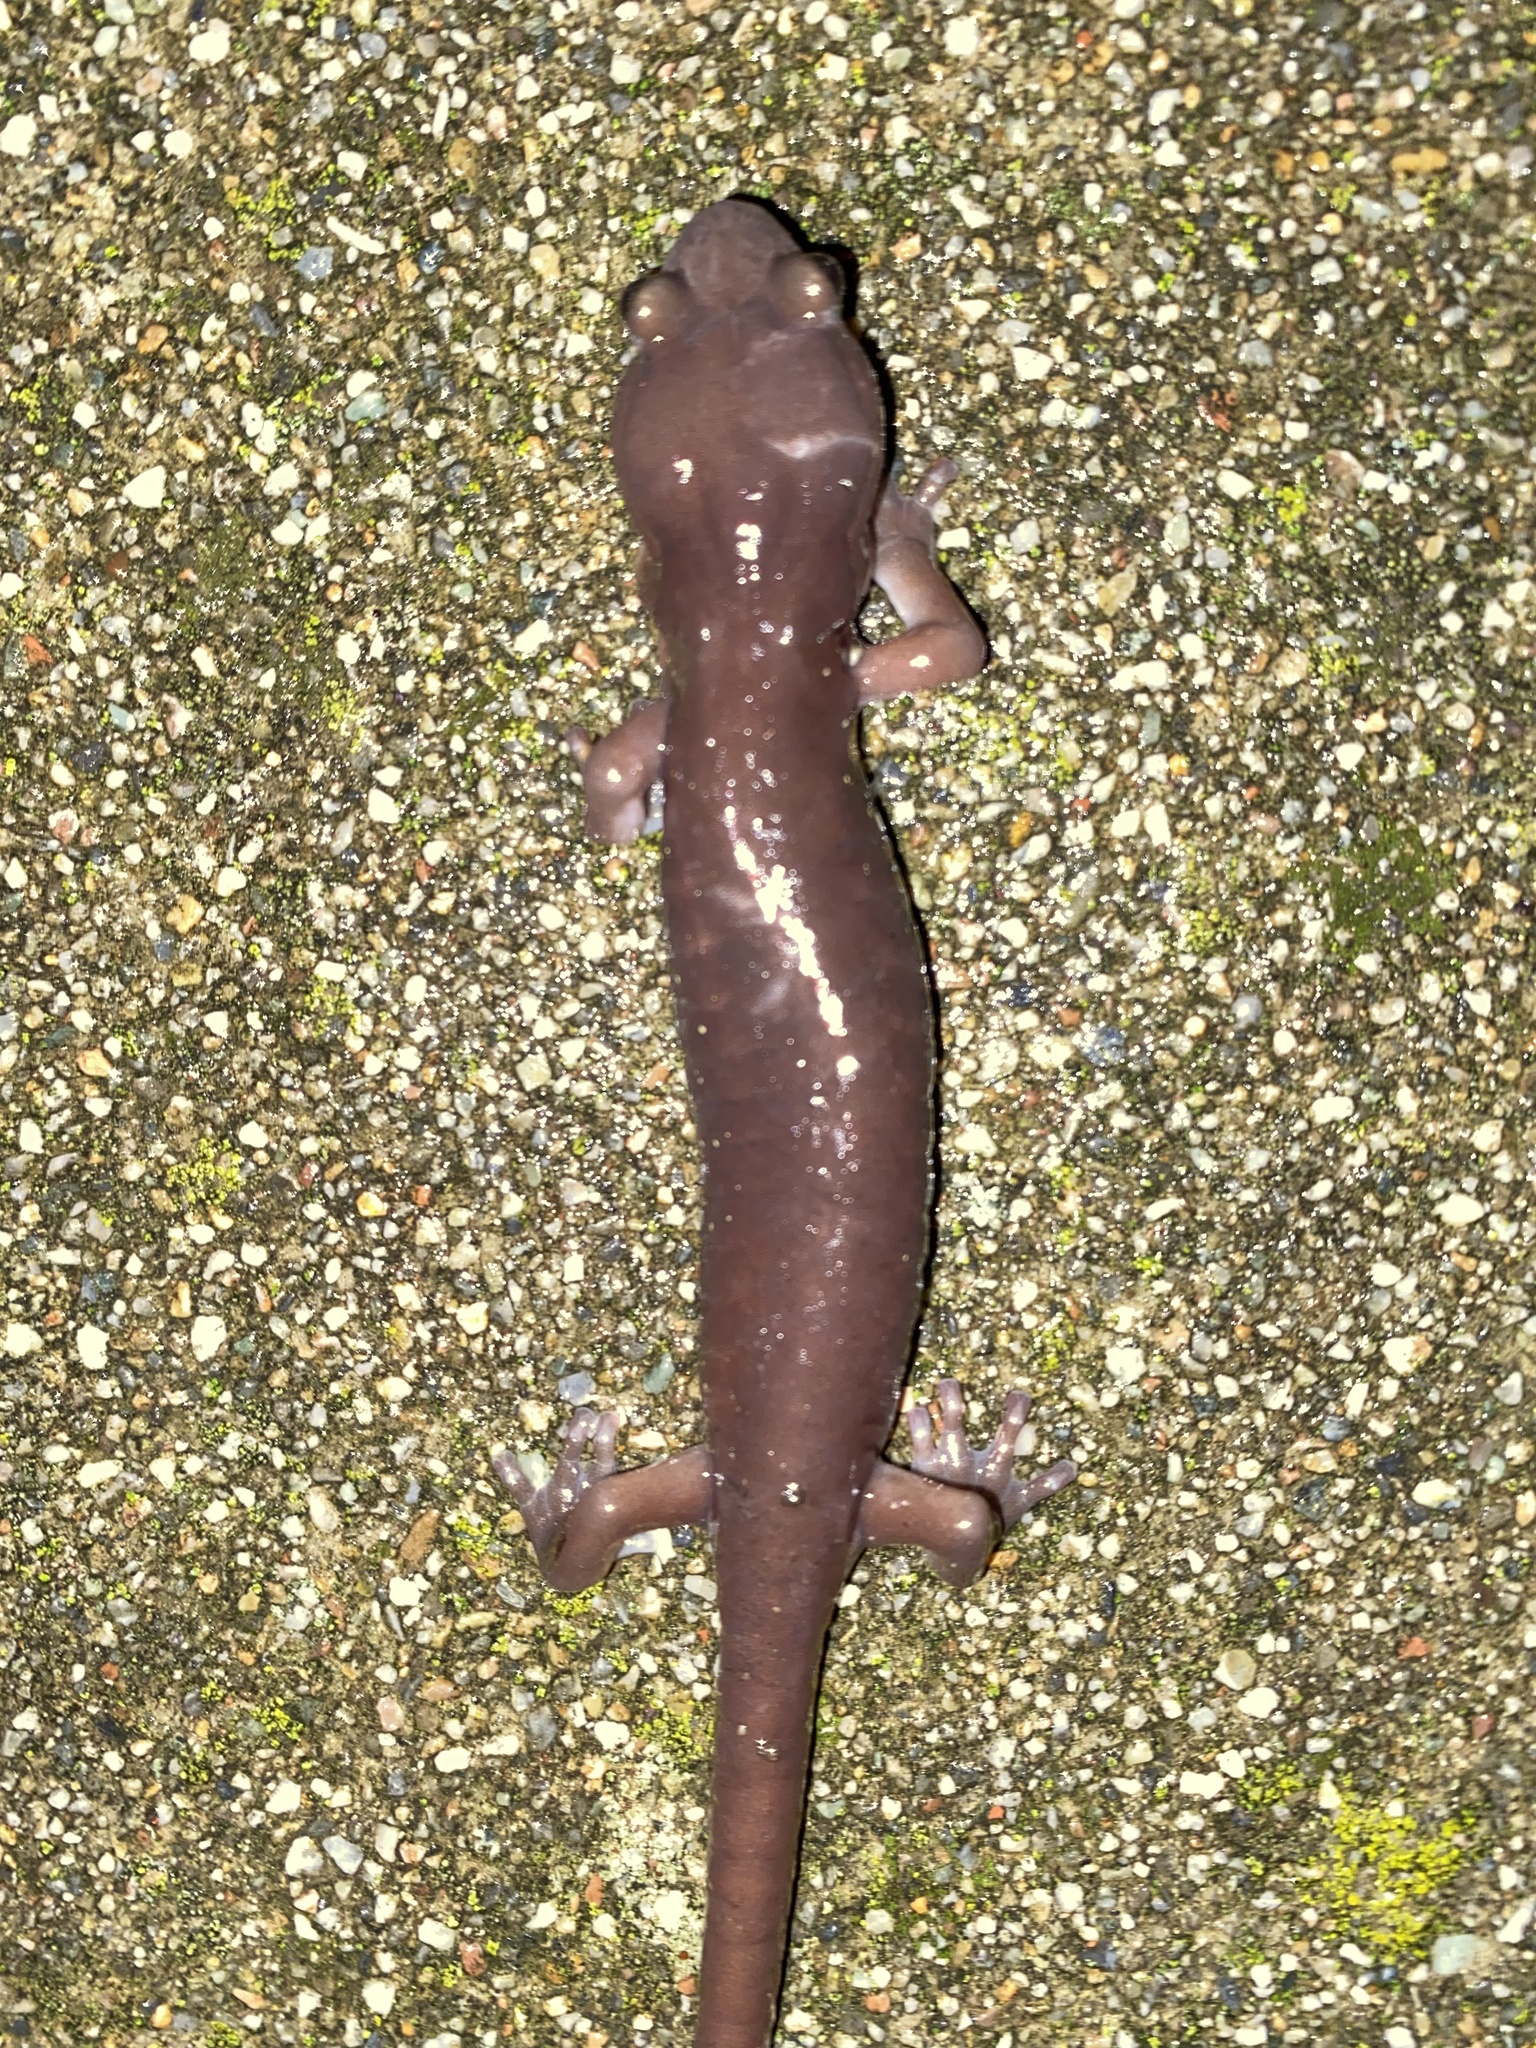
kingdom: Animalia
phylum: Chordata
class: Amphibia
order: Caudata
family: Plethodontidae
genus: Aneides
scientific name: Aneides lugubris
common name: Arboreal salamander
